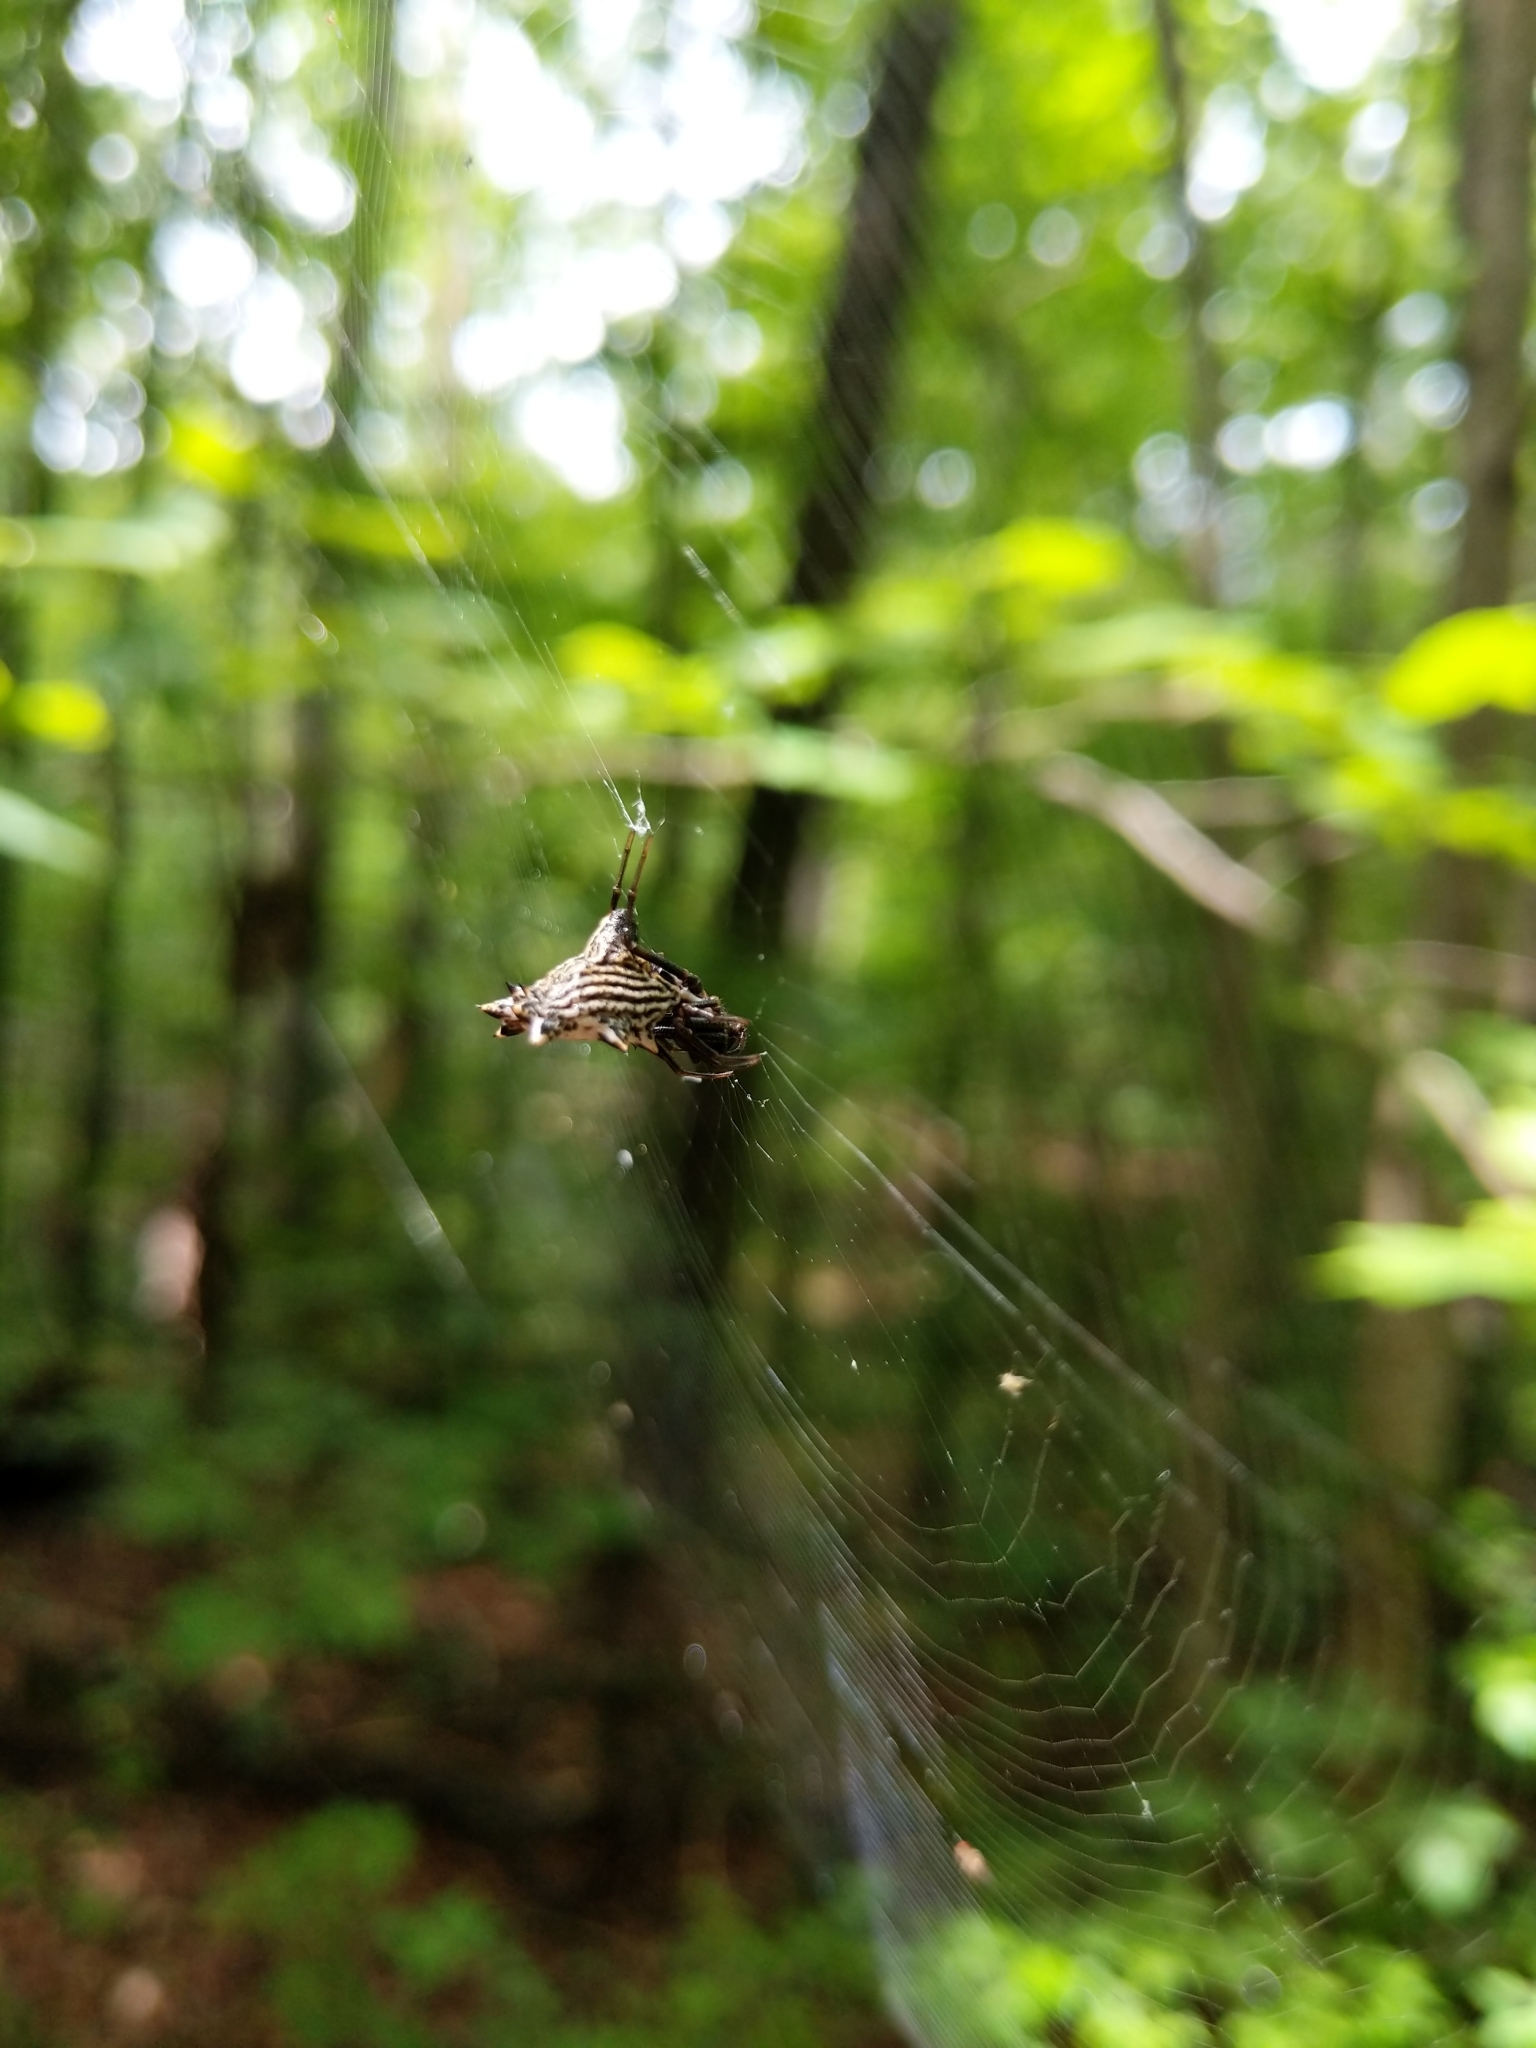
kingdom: Animalia
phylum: Arthropoda
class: Arachnida
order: Araneae
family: Araneidae
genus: Micrathena
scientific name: Micrathena gracilis
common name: Orb weavers
